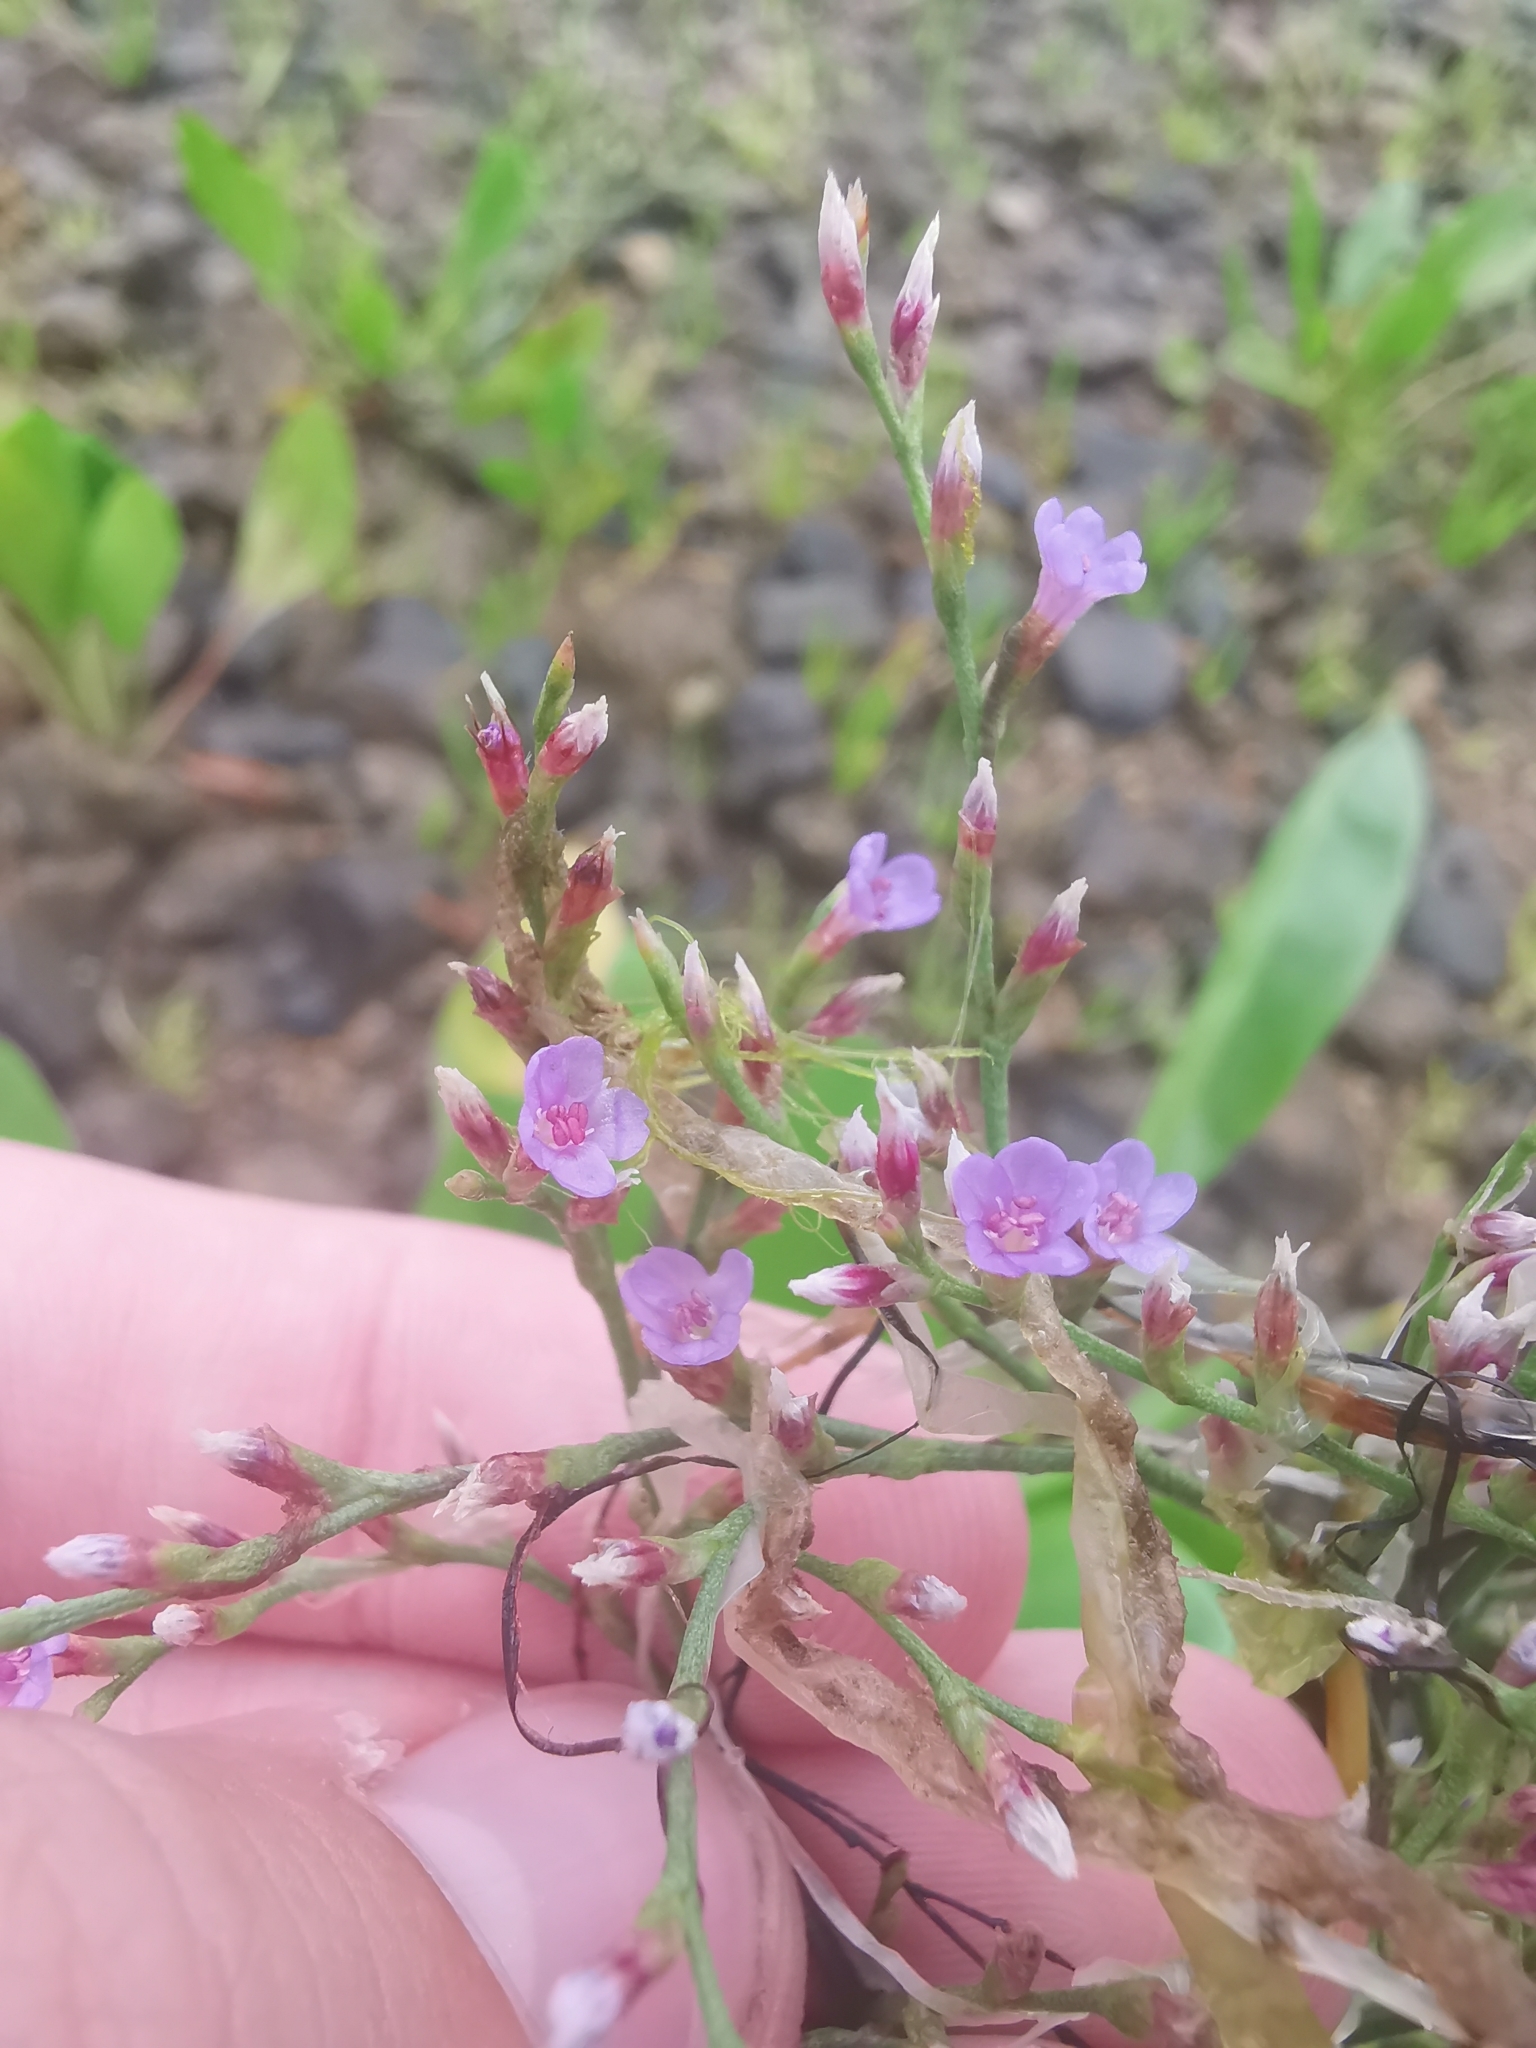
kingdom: Plantae
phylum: Tracheophyta
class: Magnoliopsida
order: Caryophyllales
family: Plumbaginaceae
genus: Limonium
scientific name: Limonium carolinianum
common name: Carolina sea lavender
